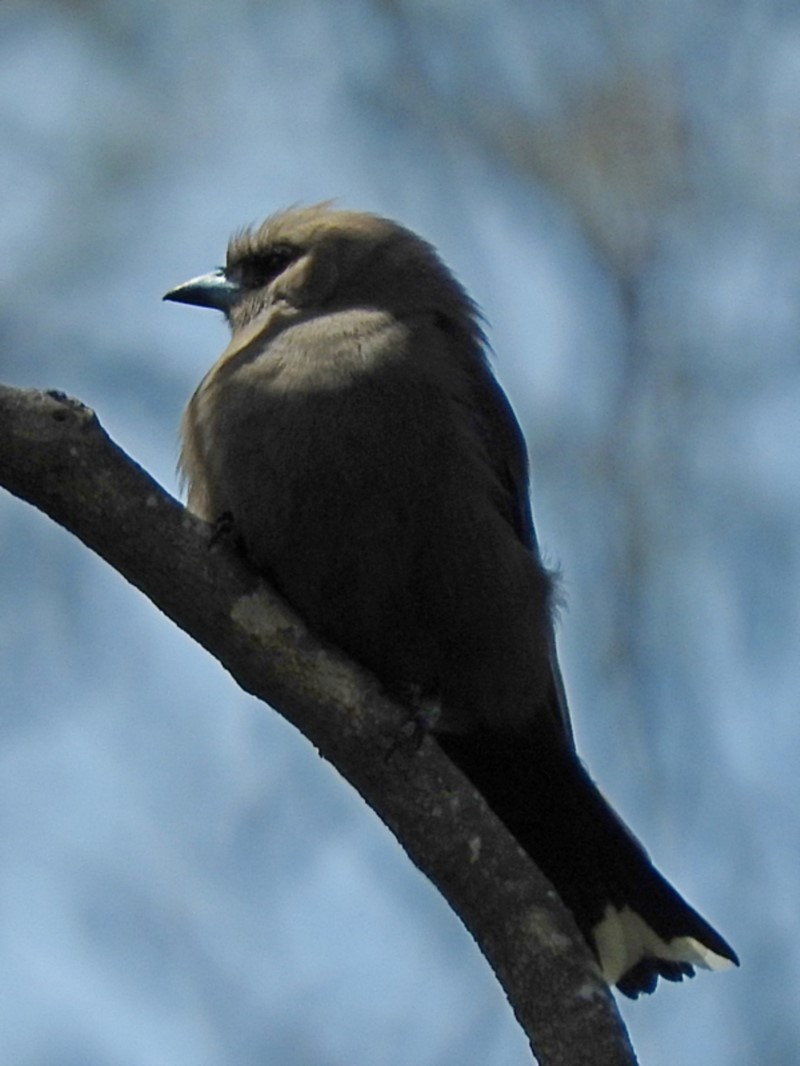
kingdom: Animalia
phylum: Chordata
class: Aves
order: Passeriformes
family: Artamidae
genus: Artamus
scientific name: Artamus cyanopterus
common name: Dusky woodswallow
